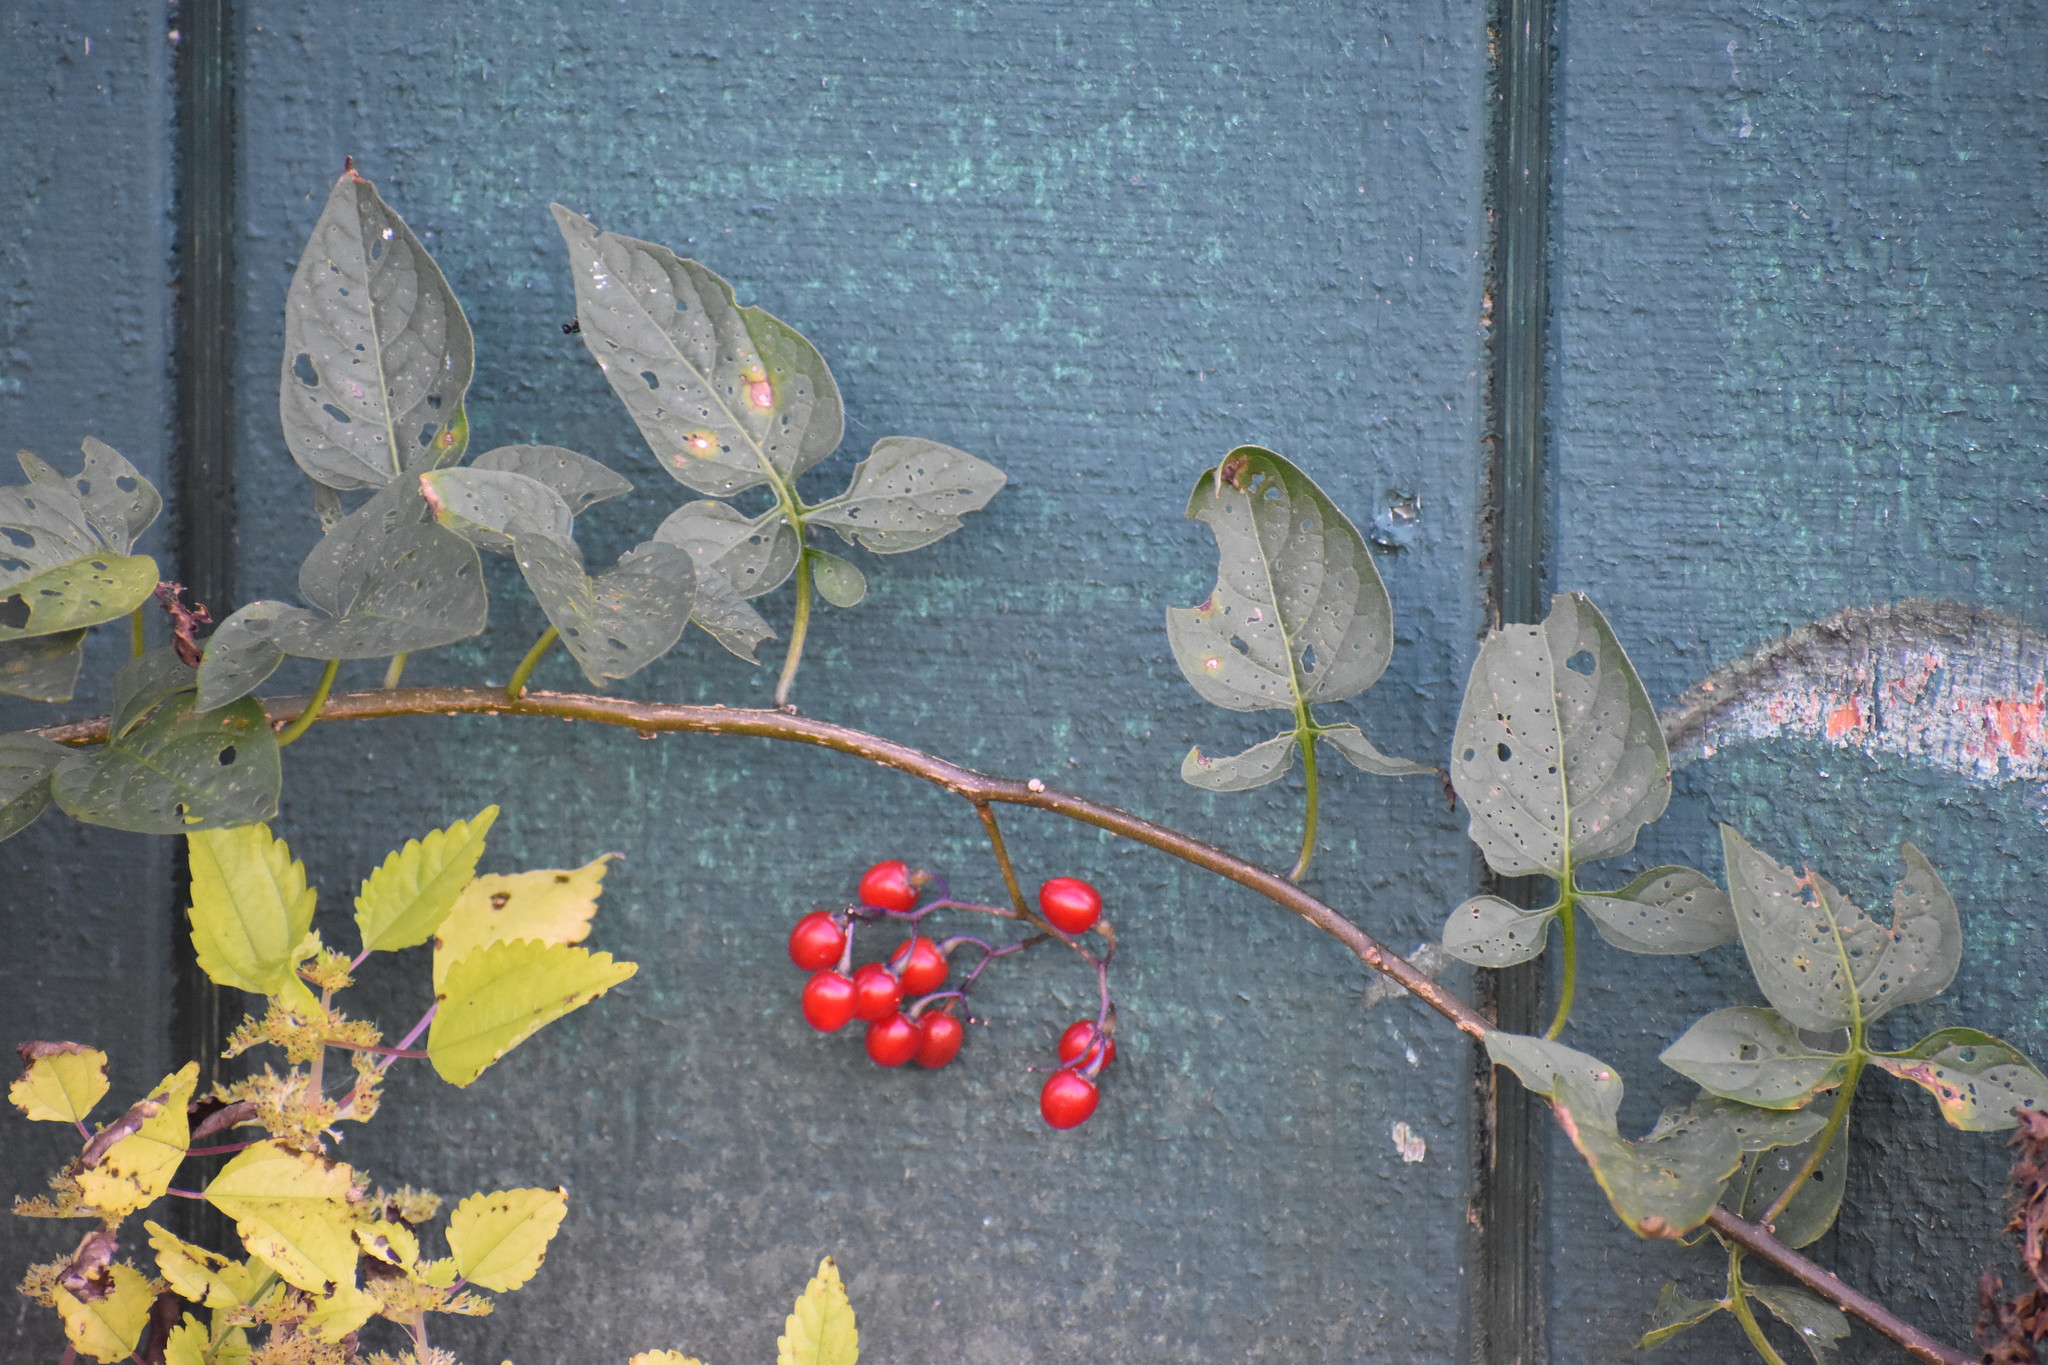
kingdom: Plantae
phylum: Tracheophyta
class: Magnoliopsida
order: Solanales
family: Solanaceae
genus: Solanum
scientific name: Solanum dulcamara
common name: Climbing nightshade
